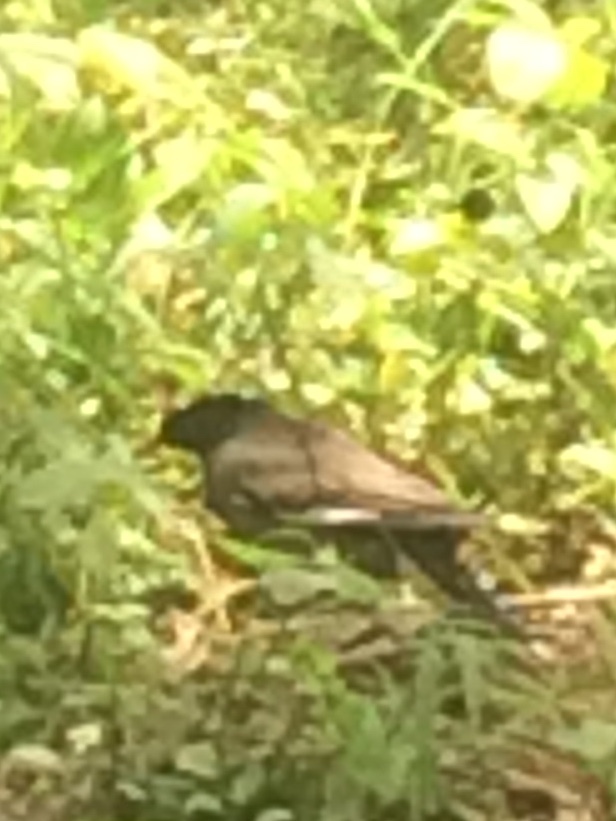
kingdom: Animalia
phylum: Chordata
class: Aves
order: Passeriformes
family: Sturnidae
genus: Acridotheres
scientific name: Acridotheres fuscus
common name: Jungle myna
